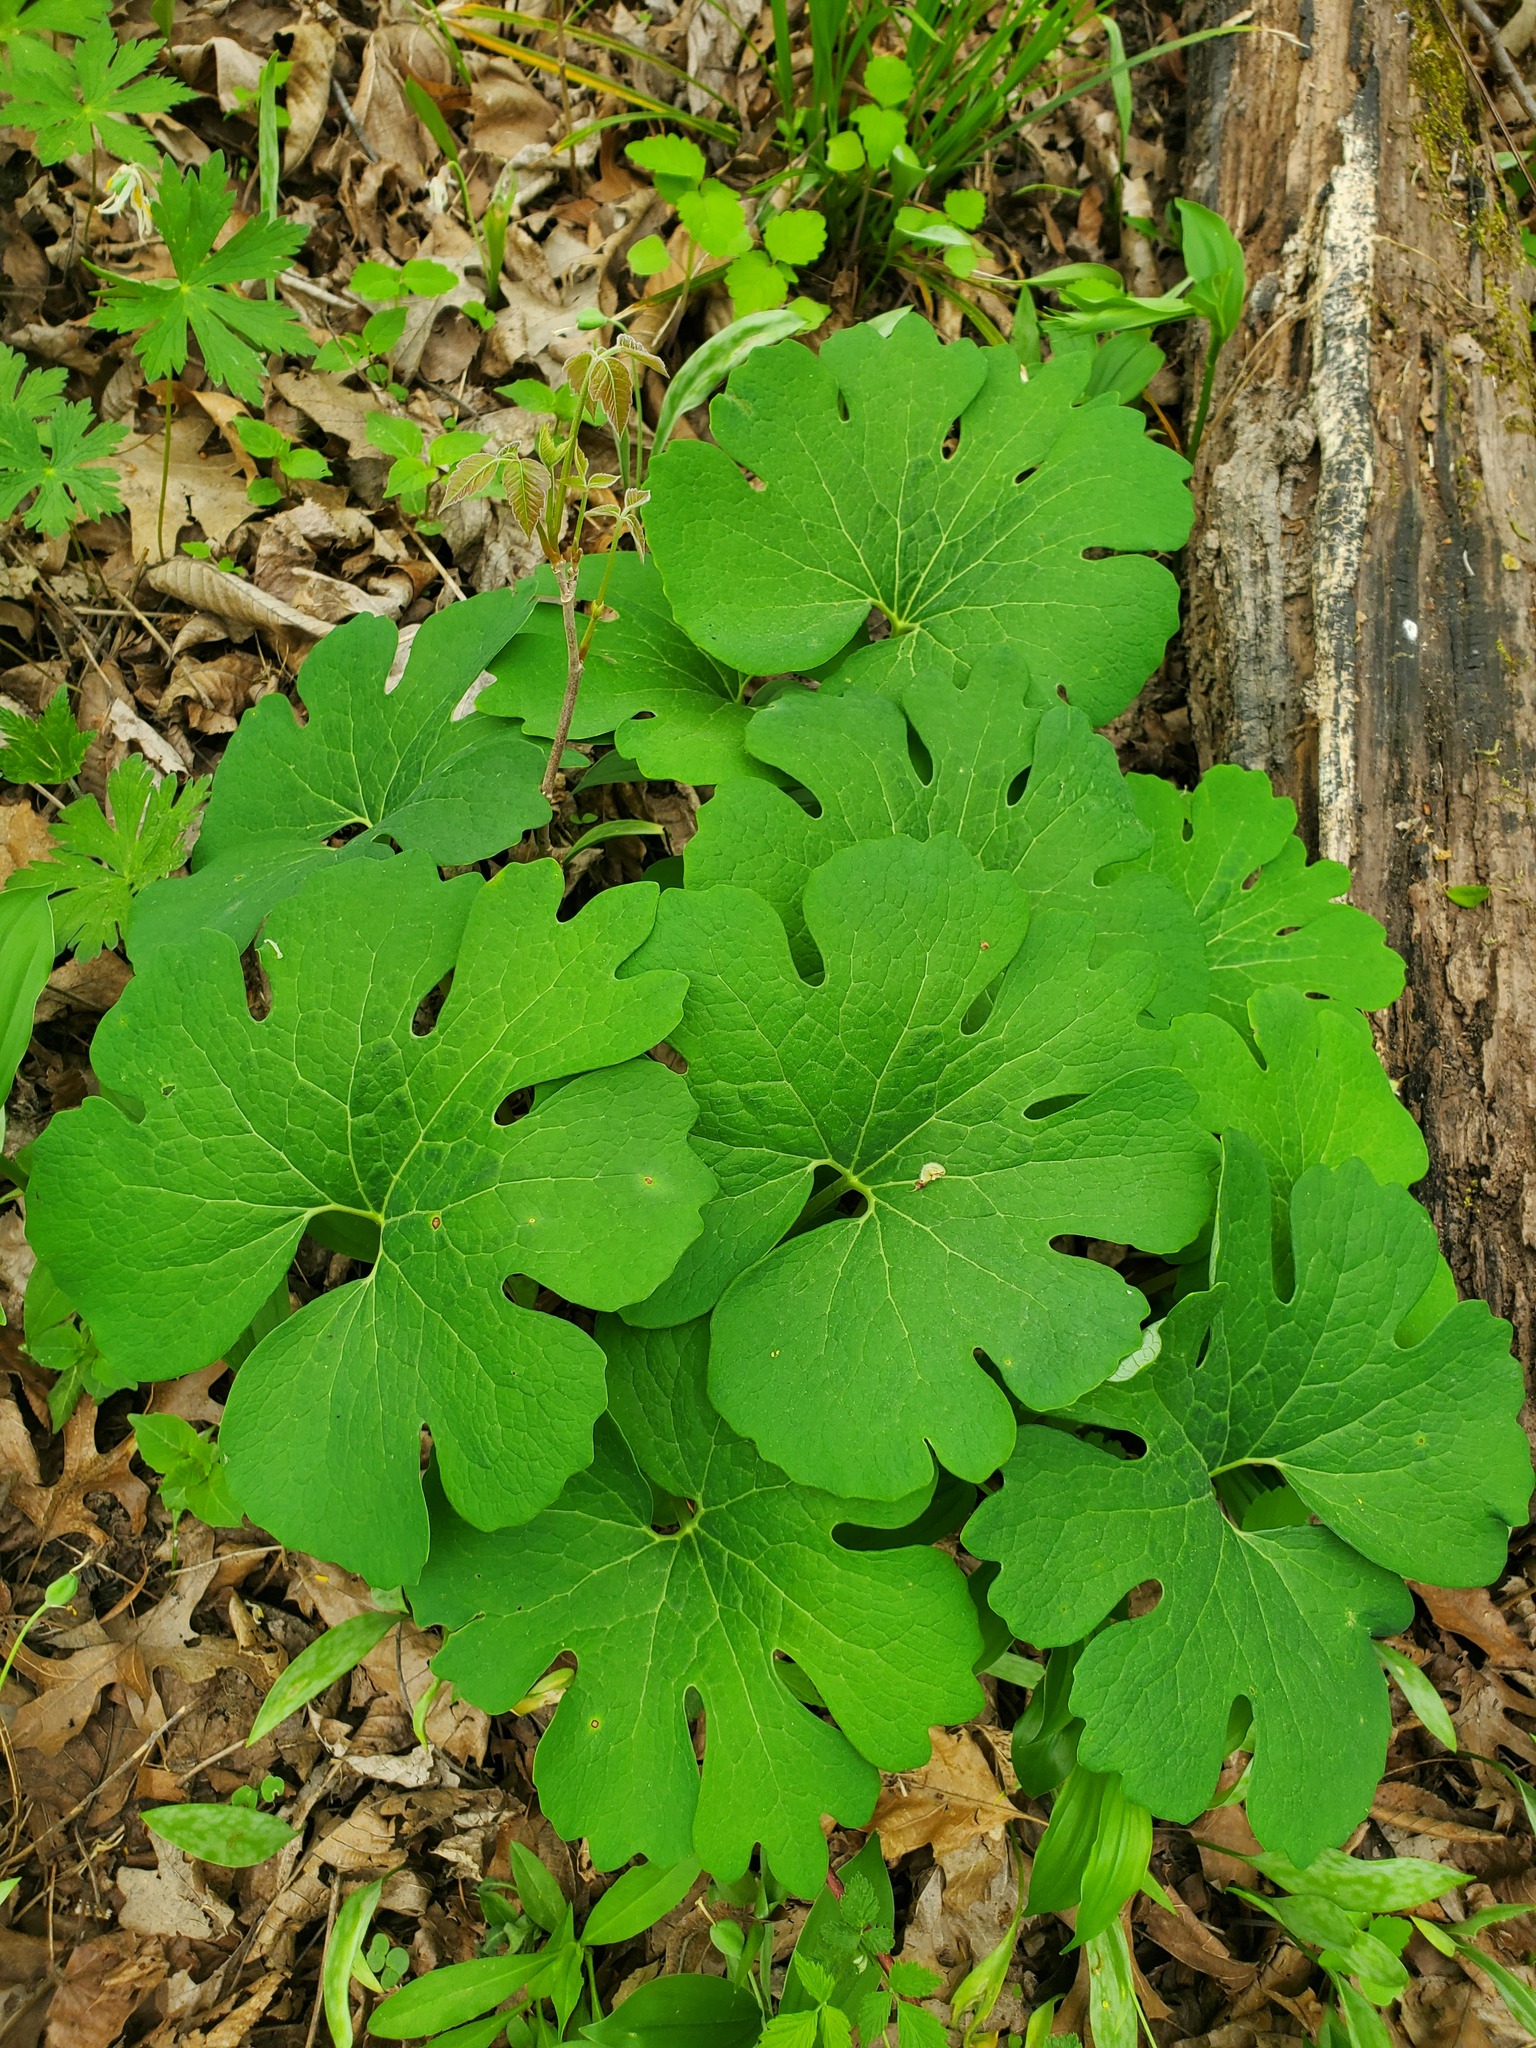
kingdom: Plantae
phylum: Tracheophyta
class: Magnoliopsida
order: Ranunculales
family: Papaveraceae
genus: Sanguinaria
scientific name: Sanguinaria canadensis
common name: Bloodroot
